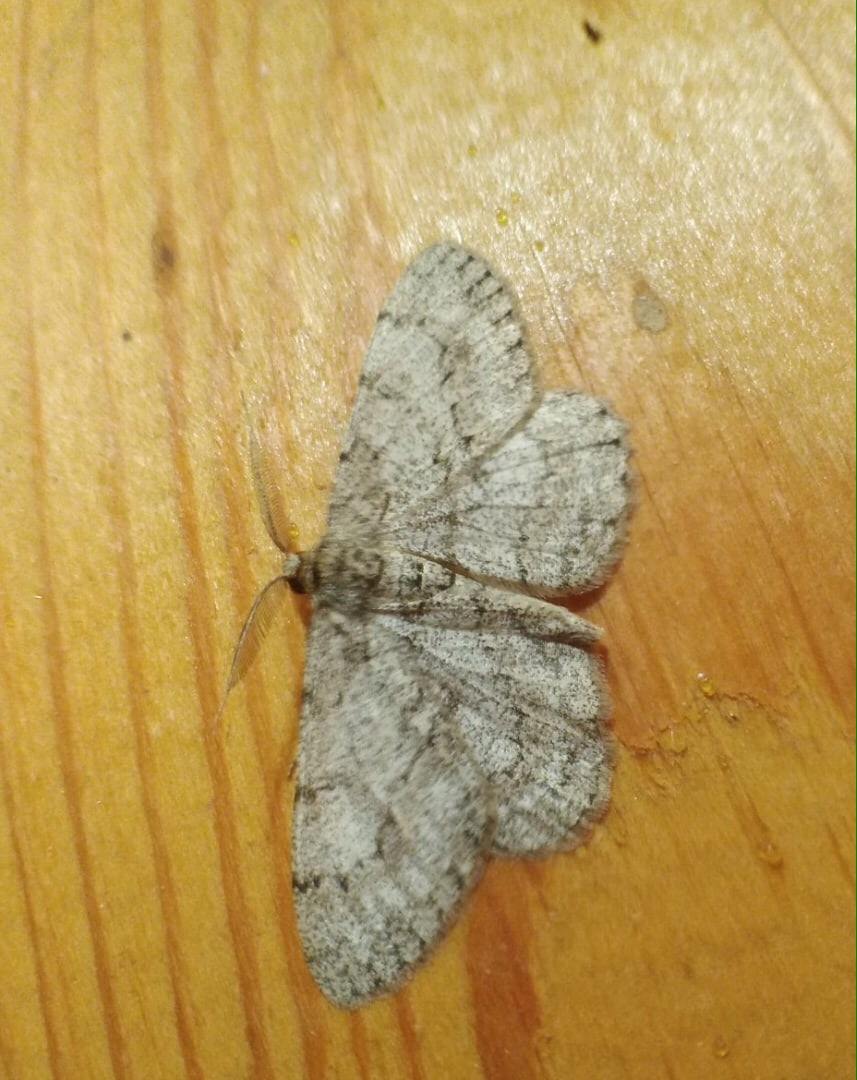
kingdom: Animalia
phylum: Arthropoda
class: Insecta
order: Lepidoptera
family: Geometridae
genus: Hypomecis
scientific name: Hypomecis punctinalis
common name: Pale oak beauty
